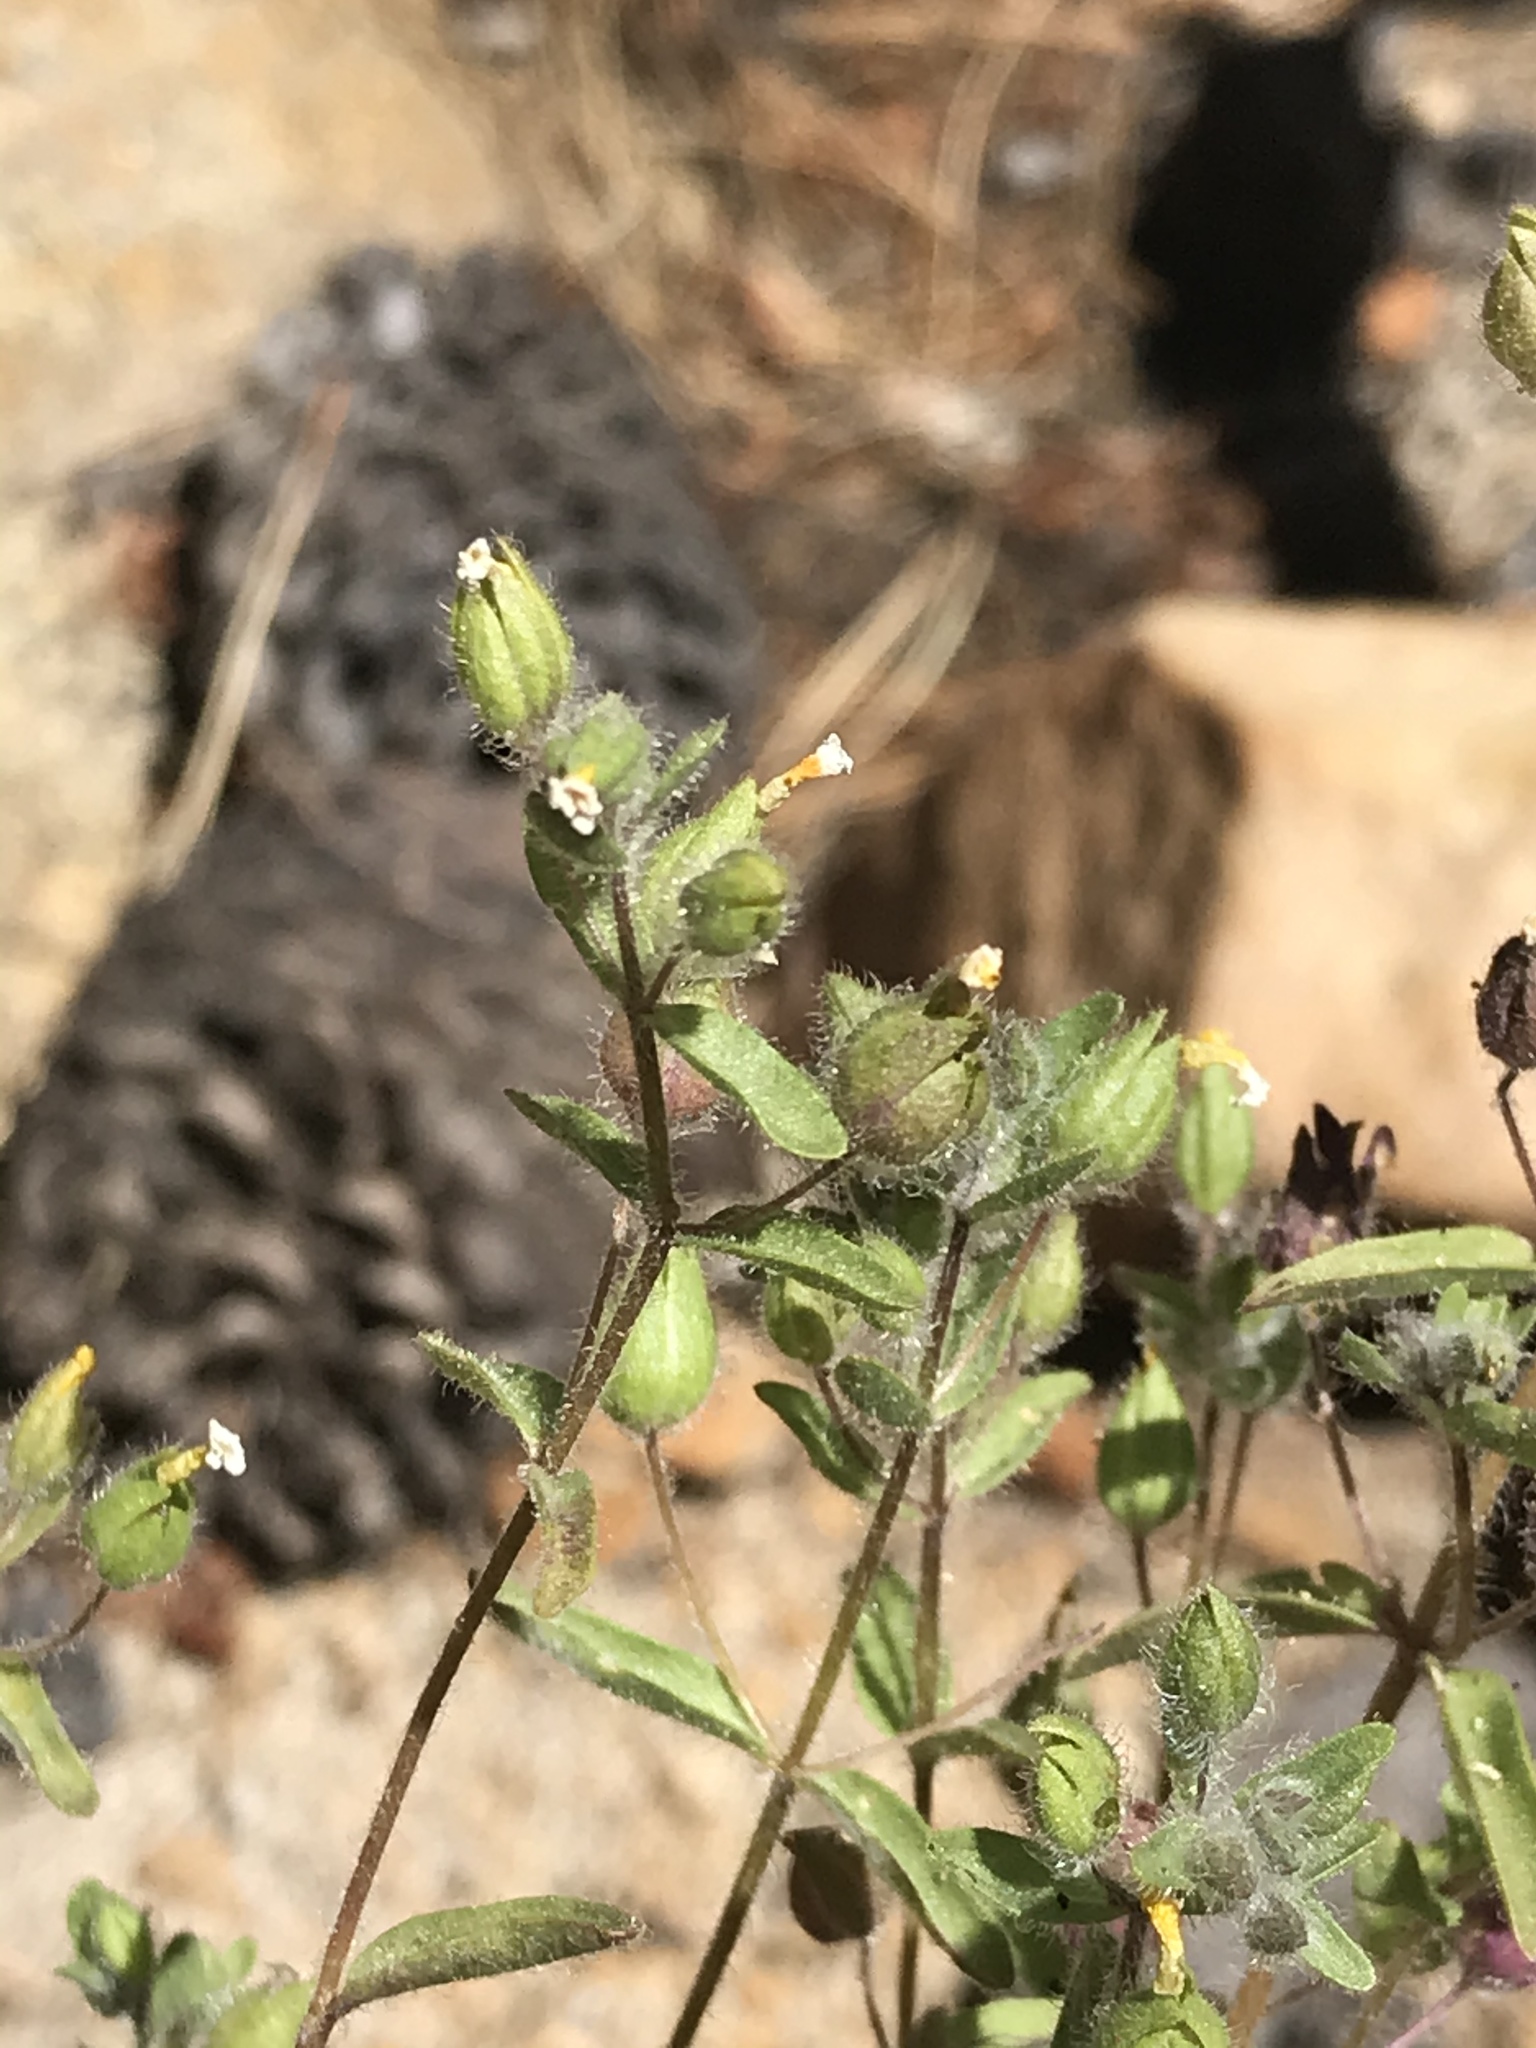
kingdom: Plantae
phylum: Tracheophyta
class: Magnoliopsida
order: Lamiales
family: Phrymaceae
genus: Mimetanthe
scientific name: Mimetanthe pilosa
